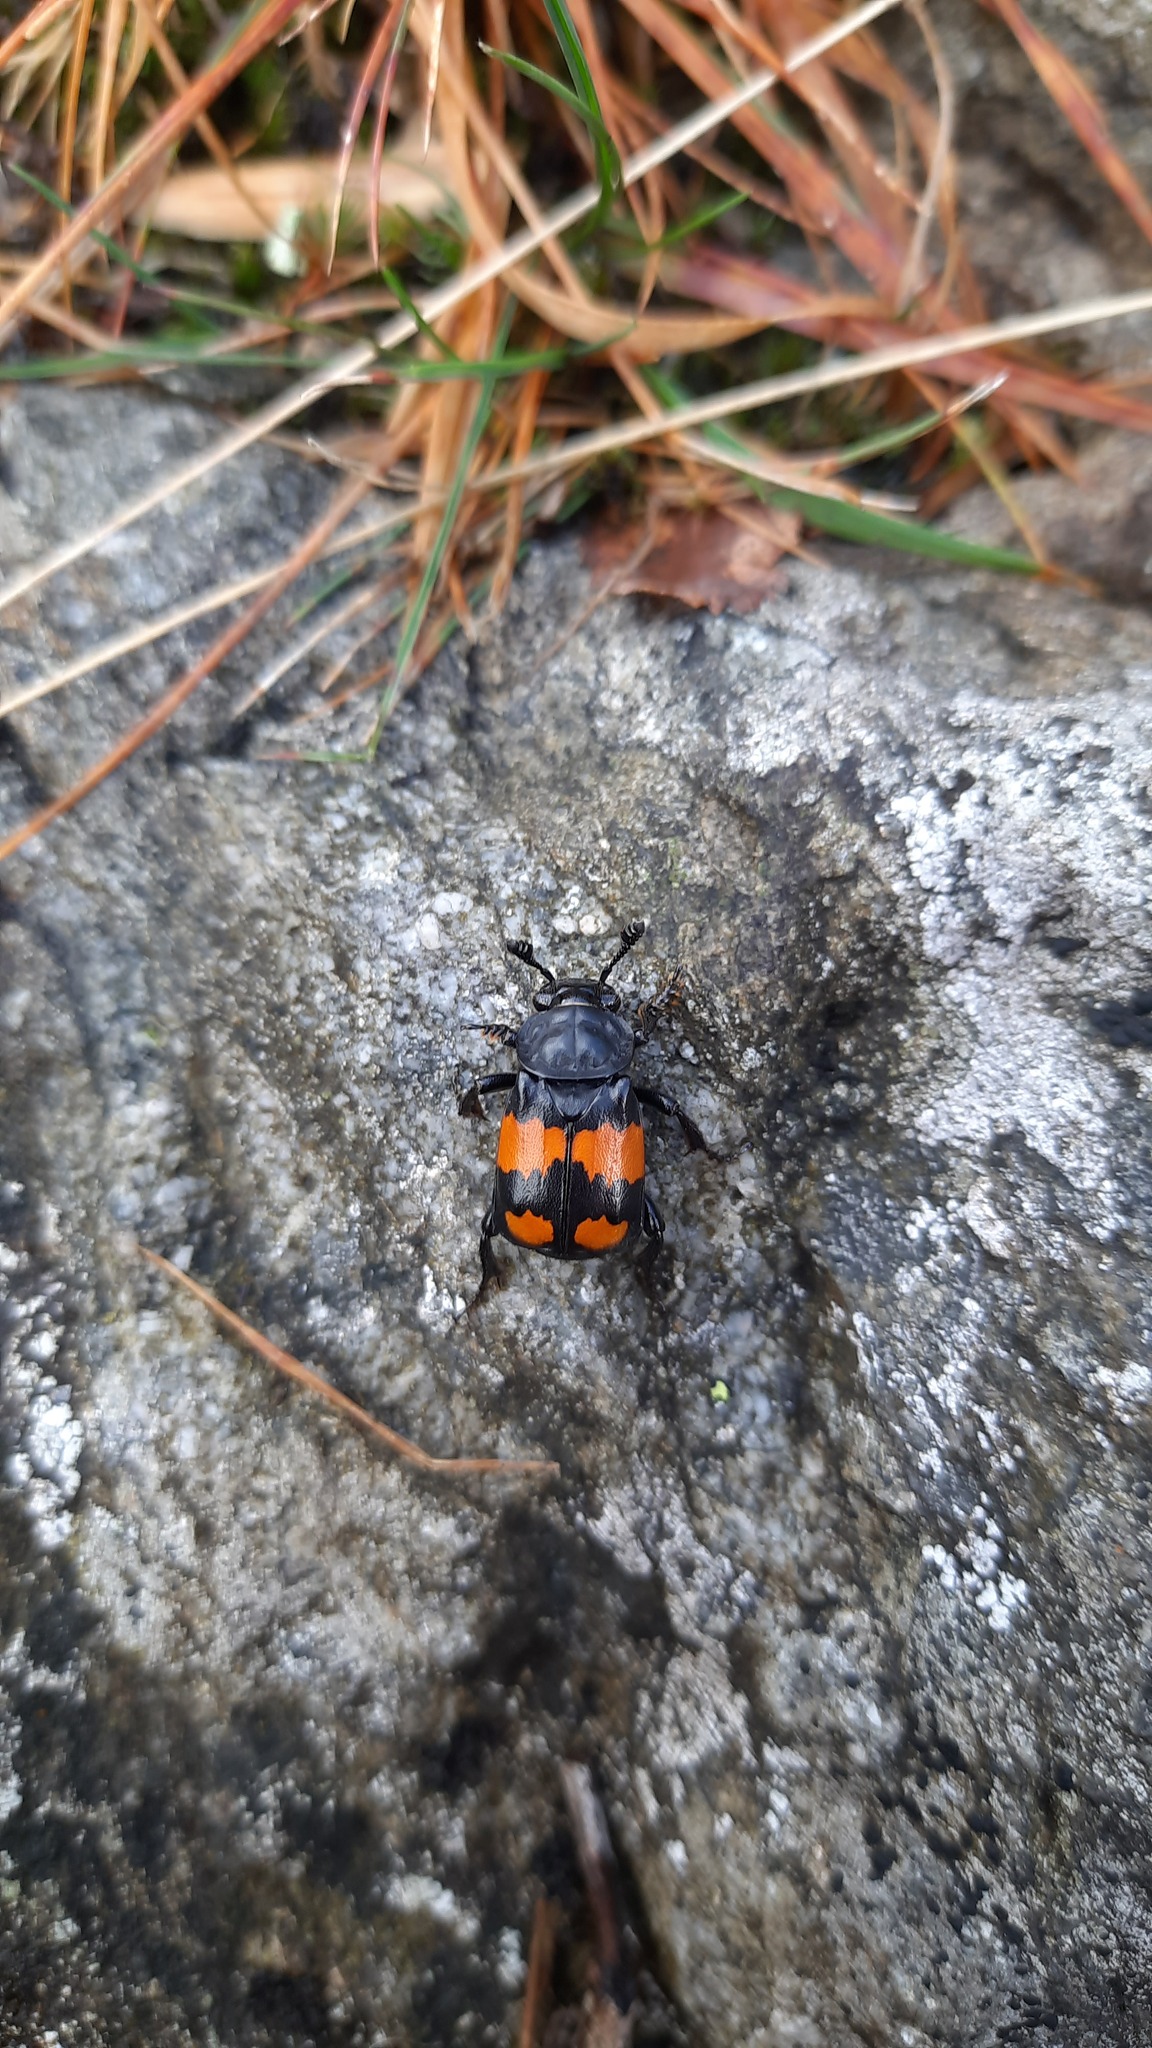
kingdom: Animalia
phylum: Arthropoda
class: Insecta
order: Coleoptera
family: Staphylinidae
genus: Nicrophorus
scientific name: Nicrophorus vespilloides
